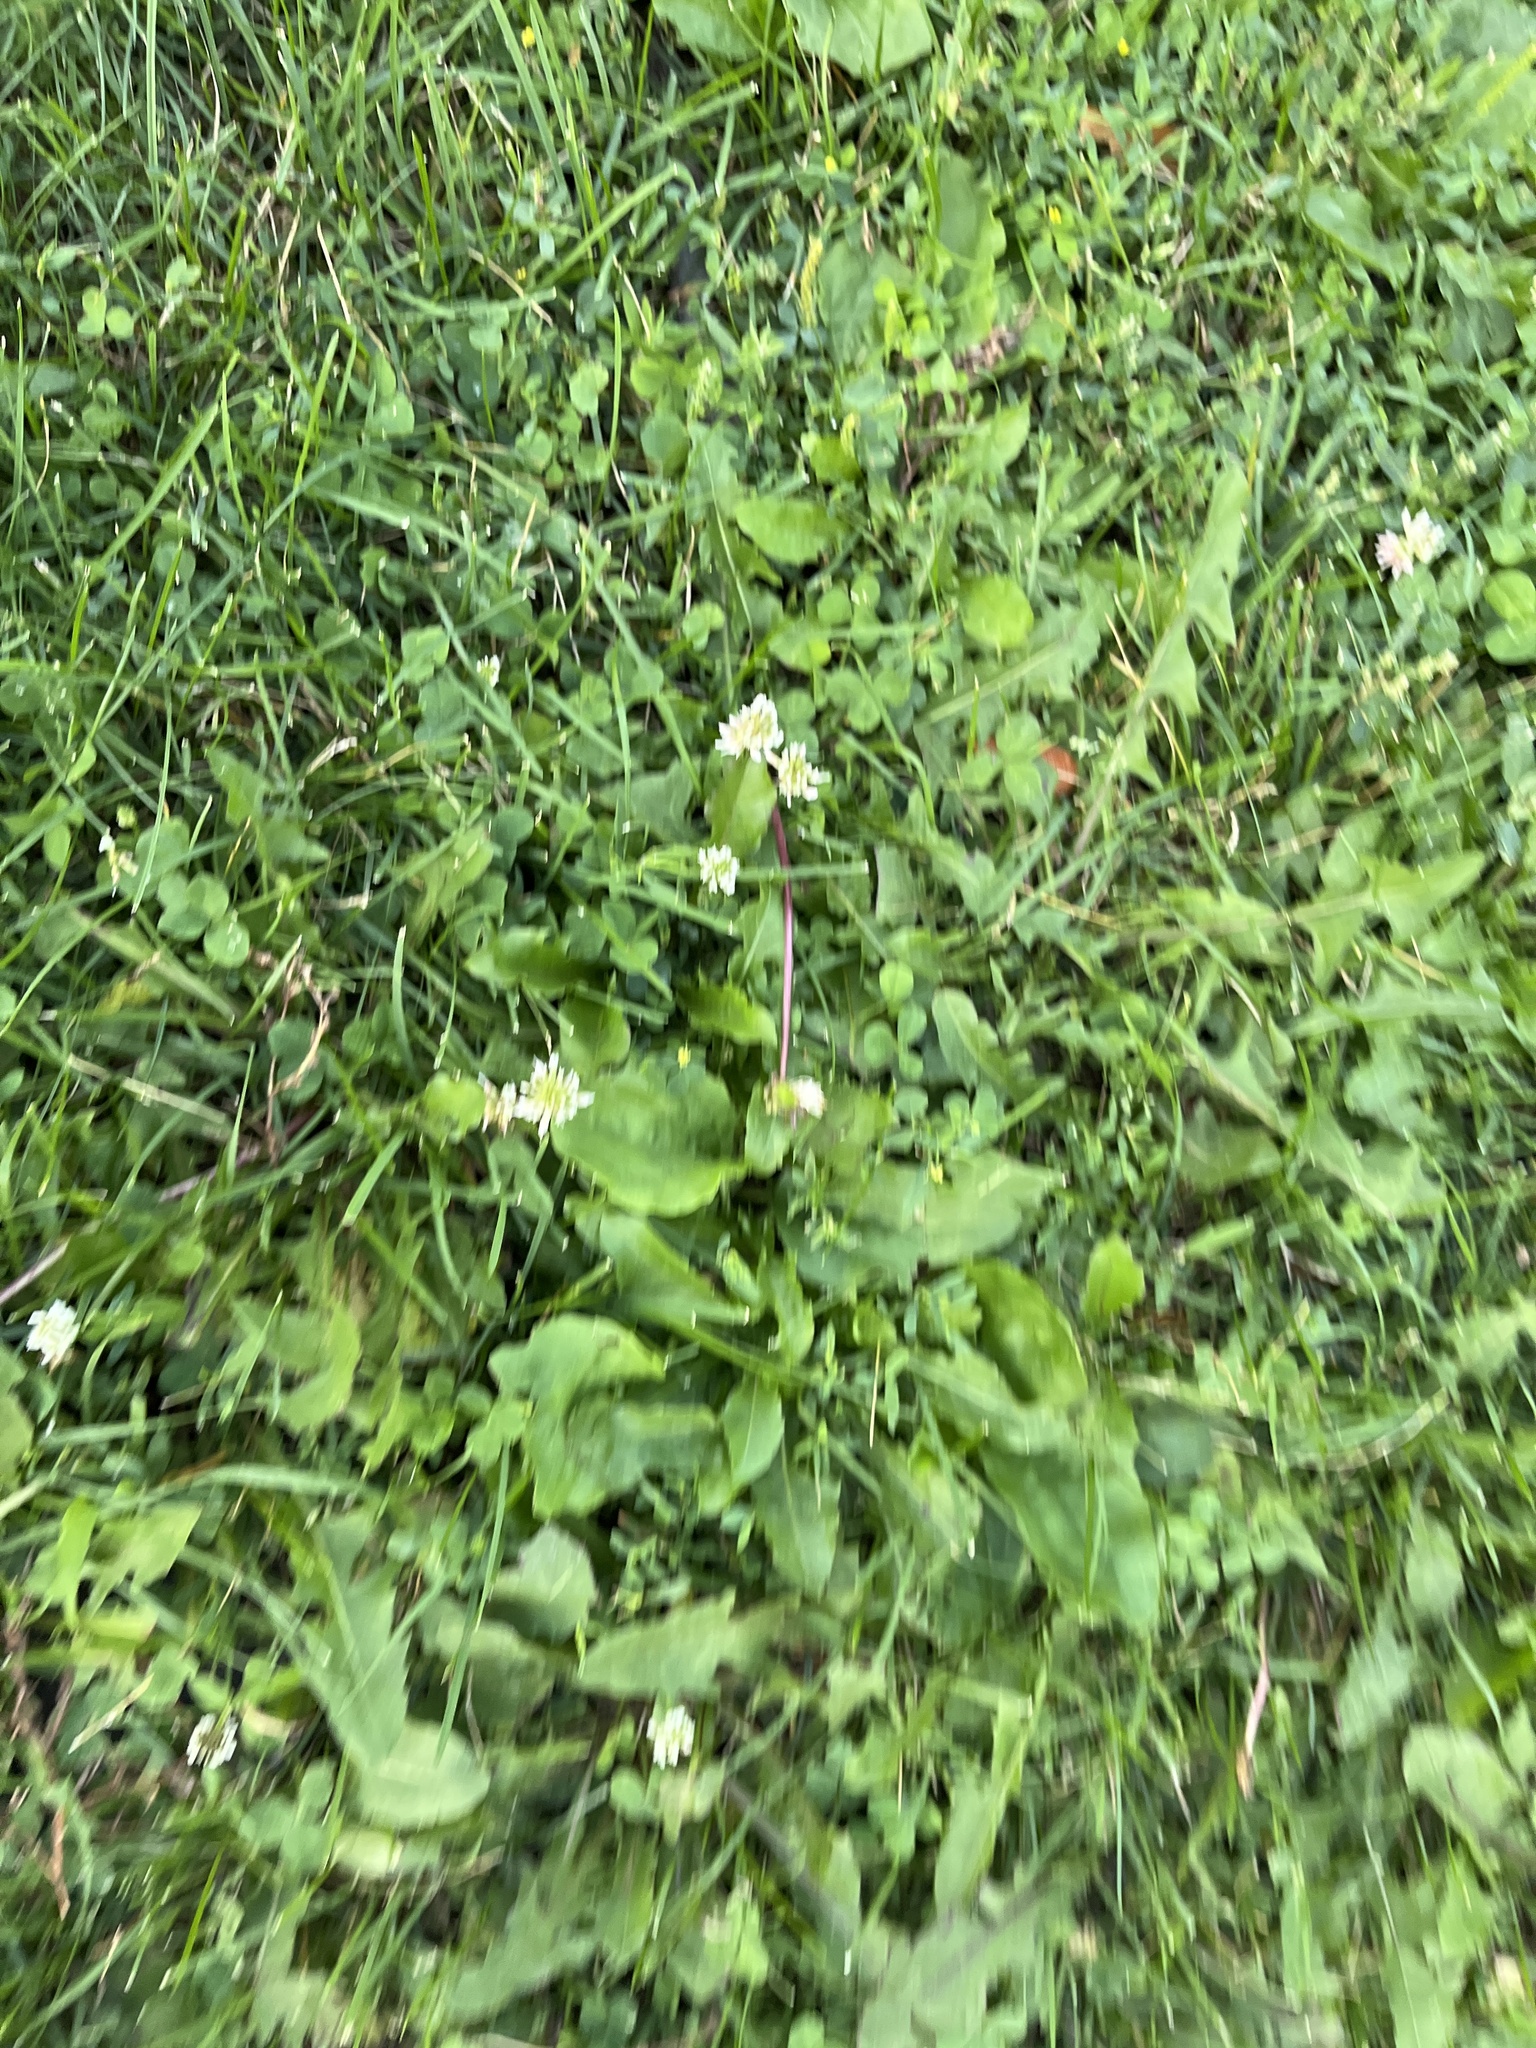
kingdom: Plantae
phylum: Tracheophyta
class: Magnoliopsida
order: Fabales
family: Fabaceae
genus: Trifolium
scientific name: Trifolium repens
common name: White clover
